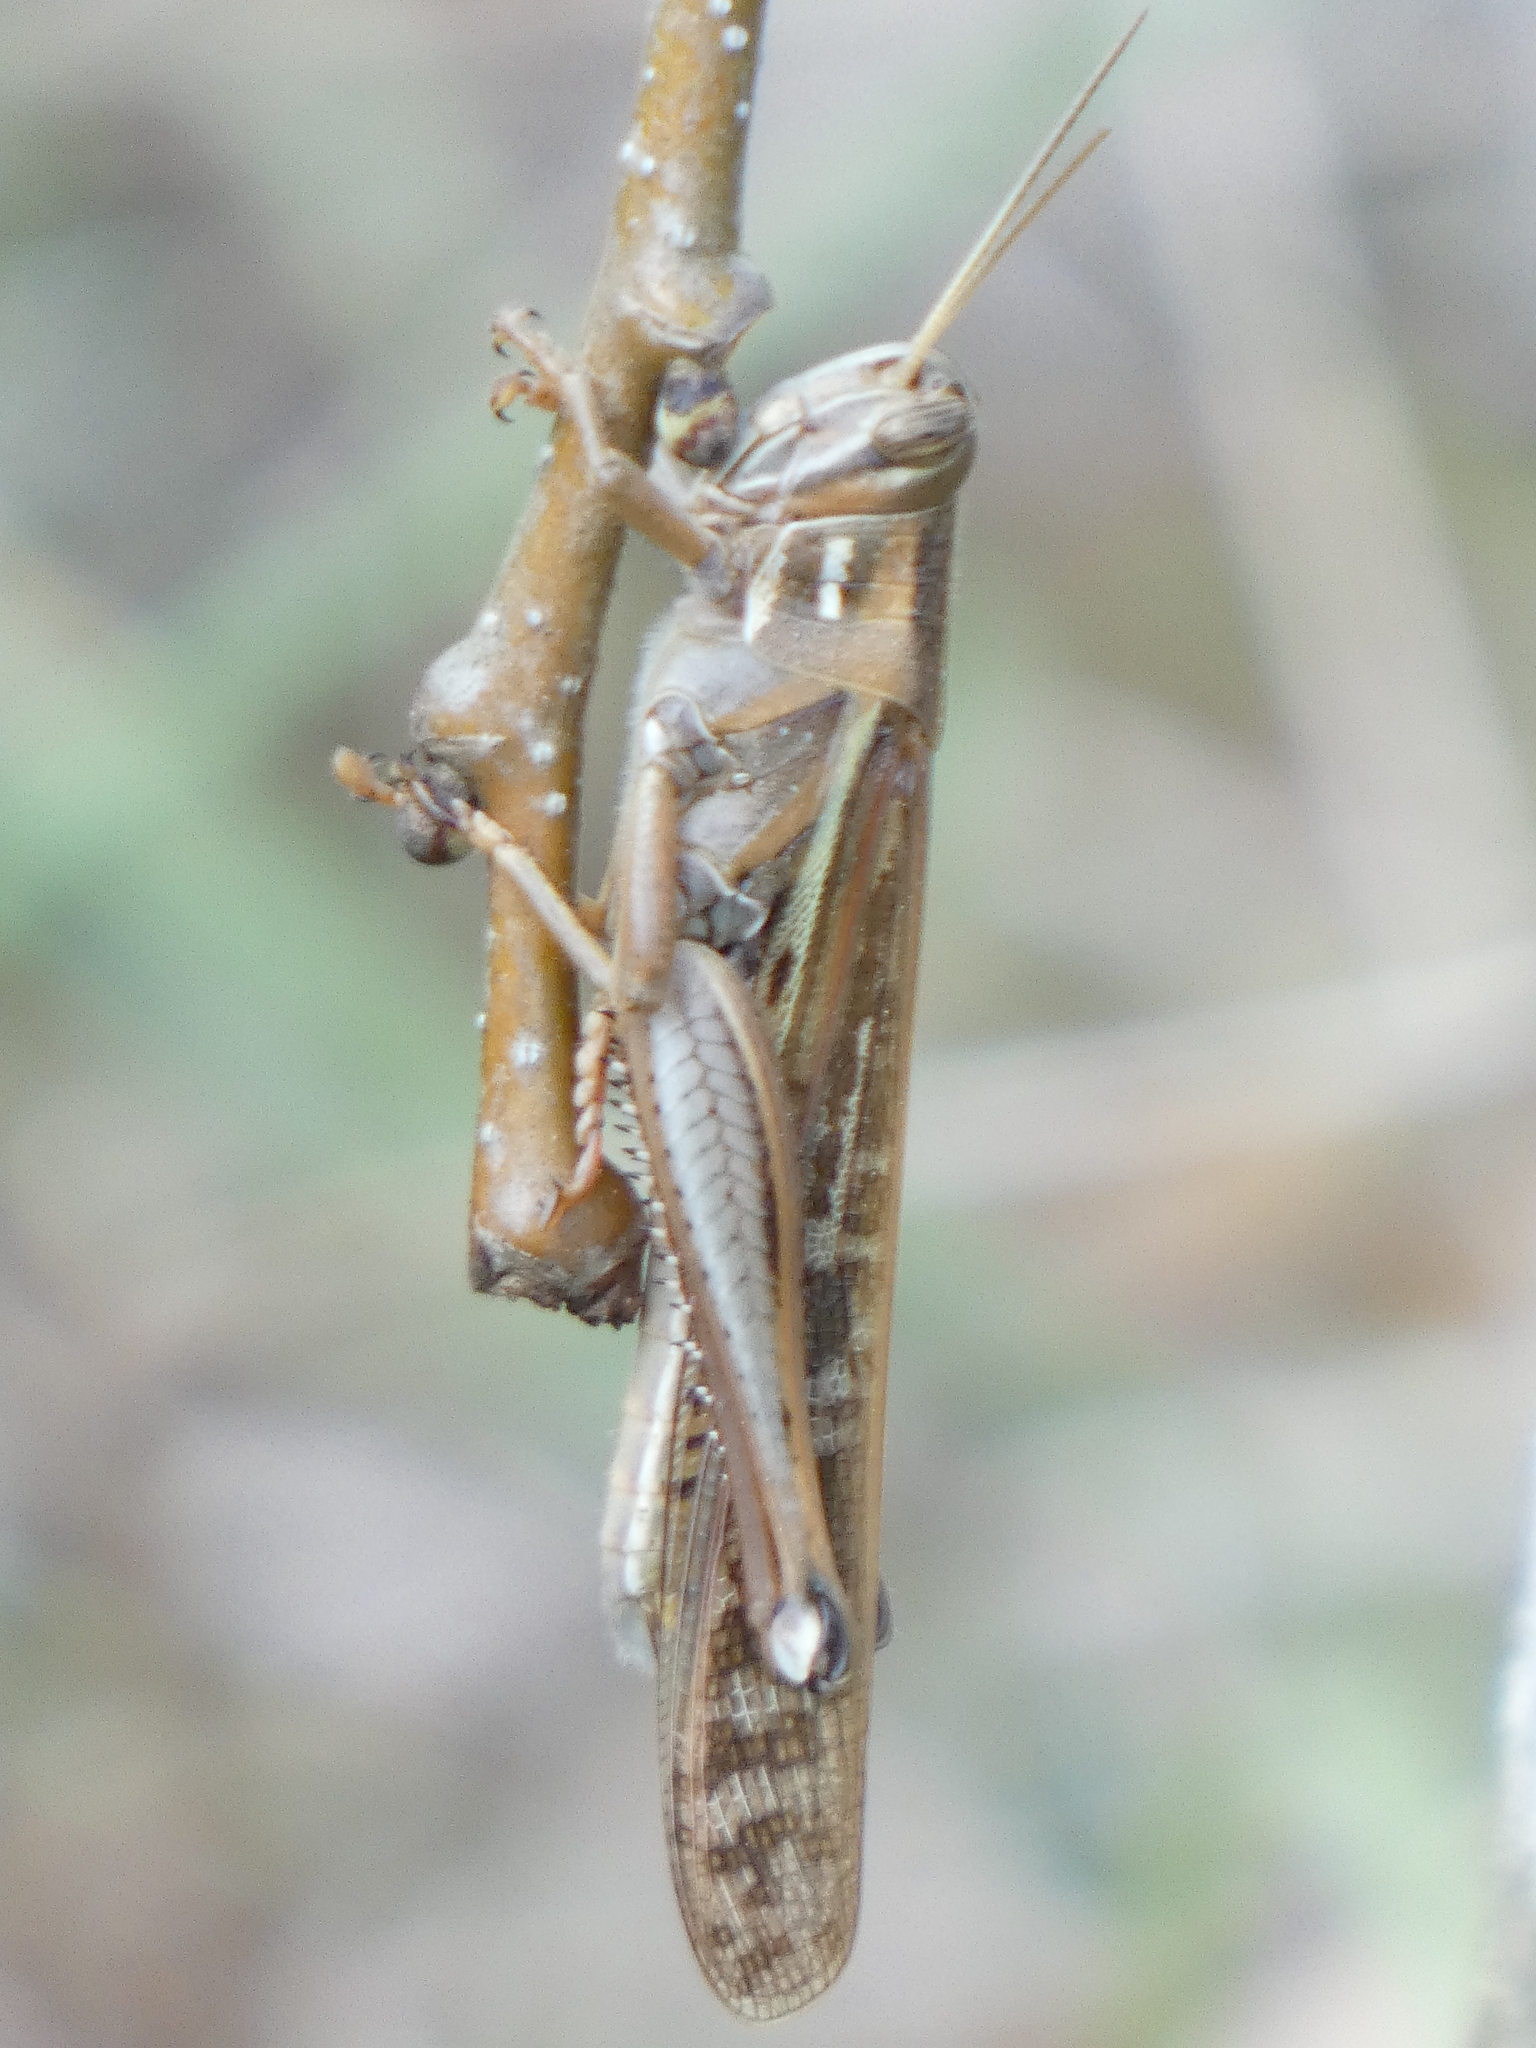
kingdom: Animalia
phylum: Arthropoda
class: Insecta
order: Orthoptera
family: Acrididae
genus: Schistocerca
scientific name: Schistocerca americana
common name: American bird locust
